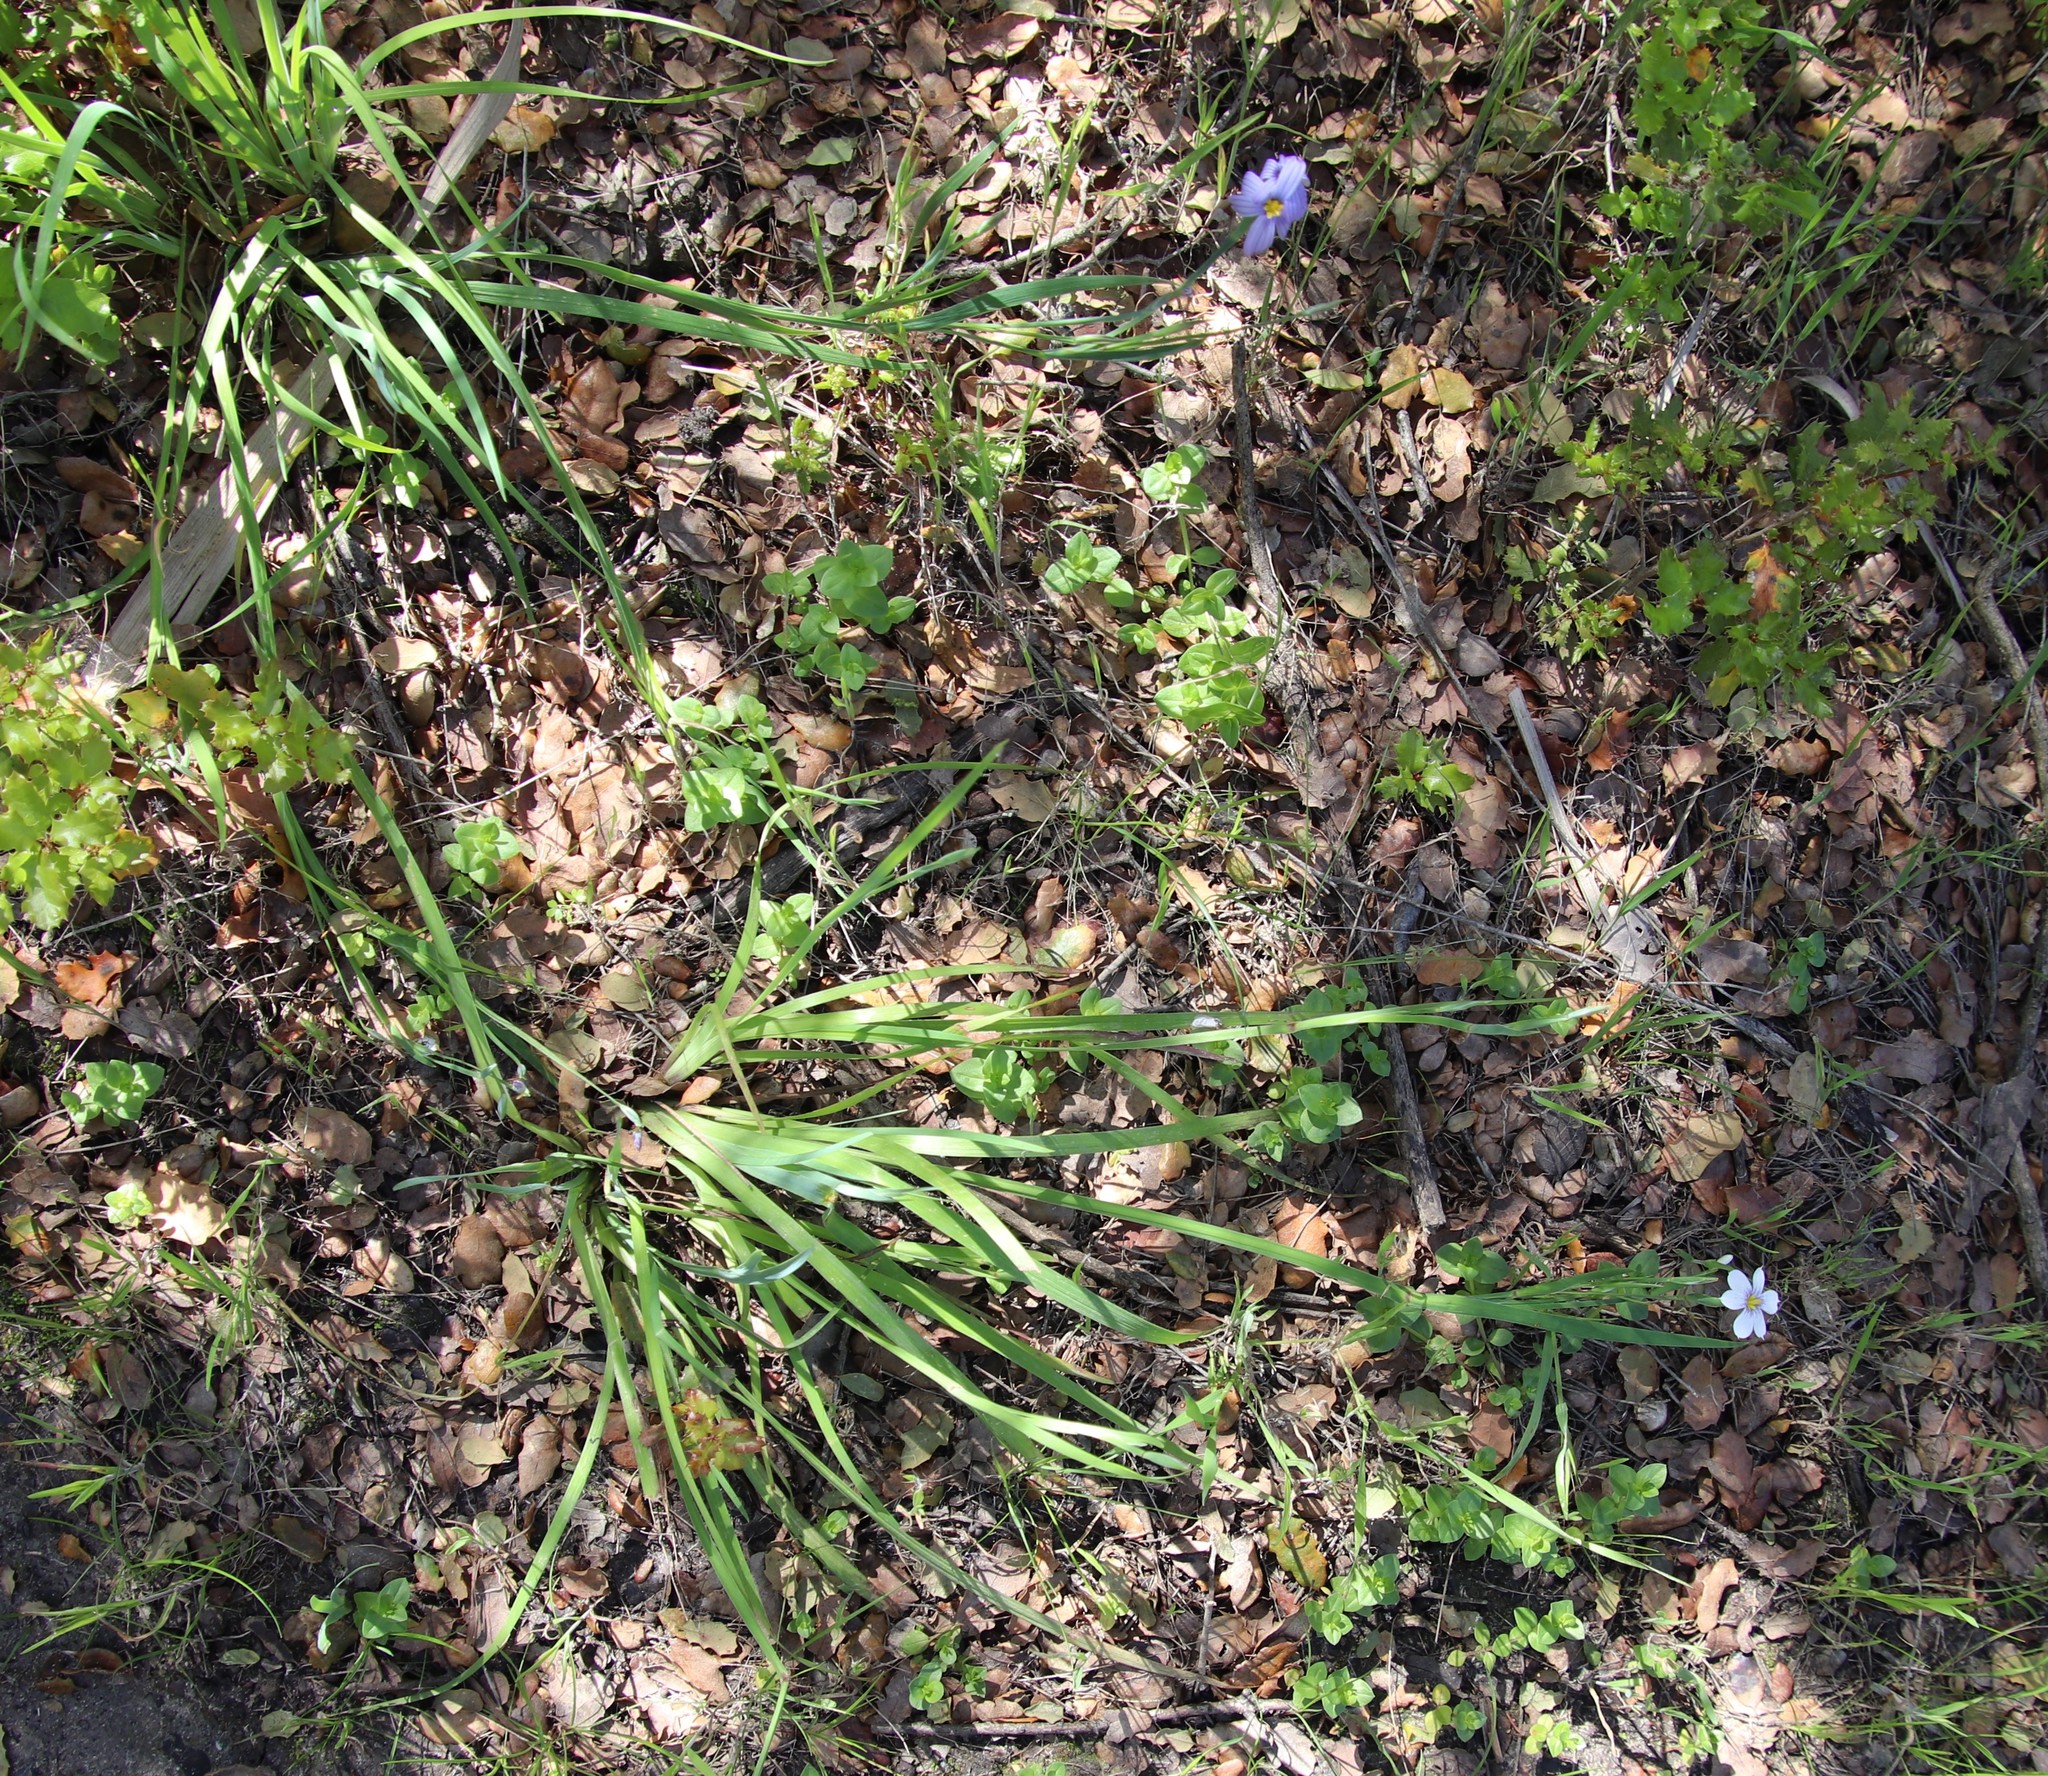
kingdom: Plantae
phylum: Tracheophyta
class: Liliopsida
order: Asparagales
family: Iridaceae
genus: Sisyrinchium
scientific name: Sisyrinchium bellum
